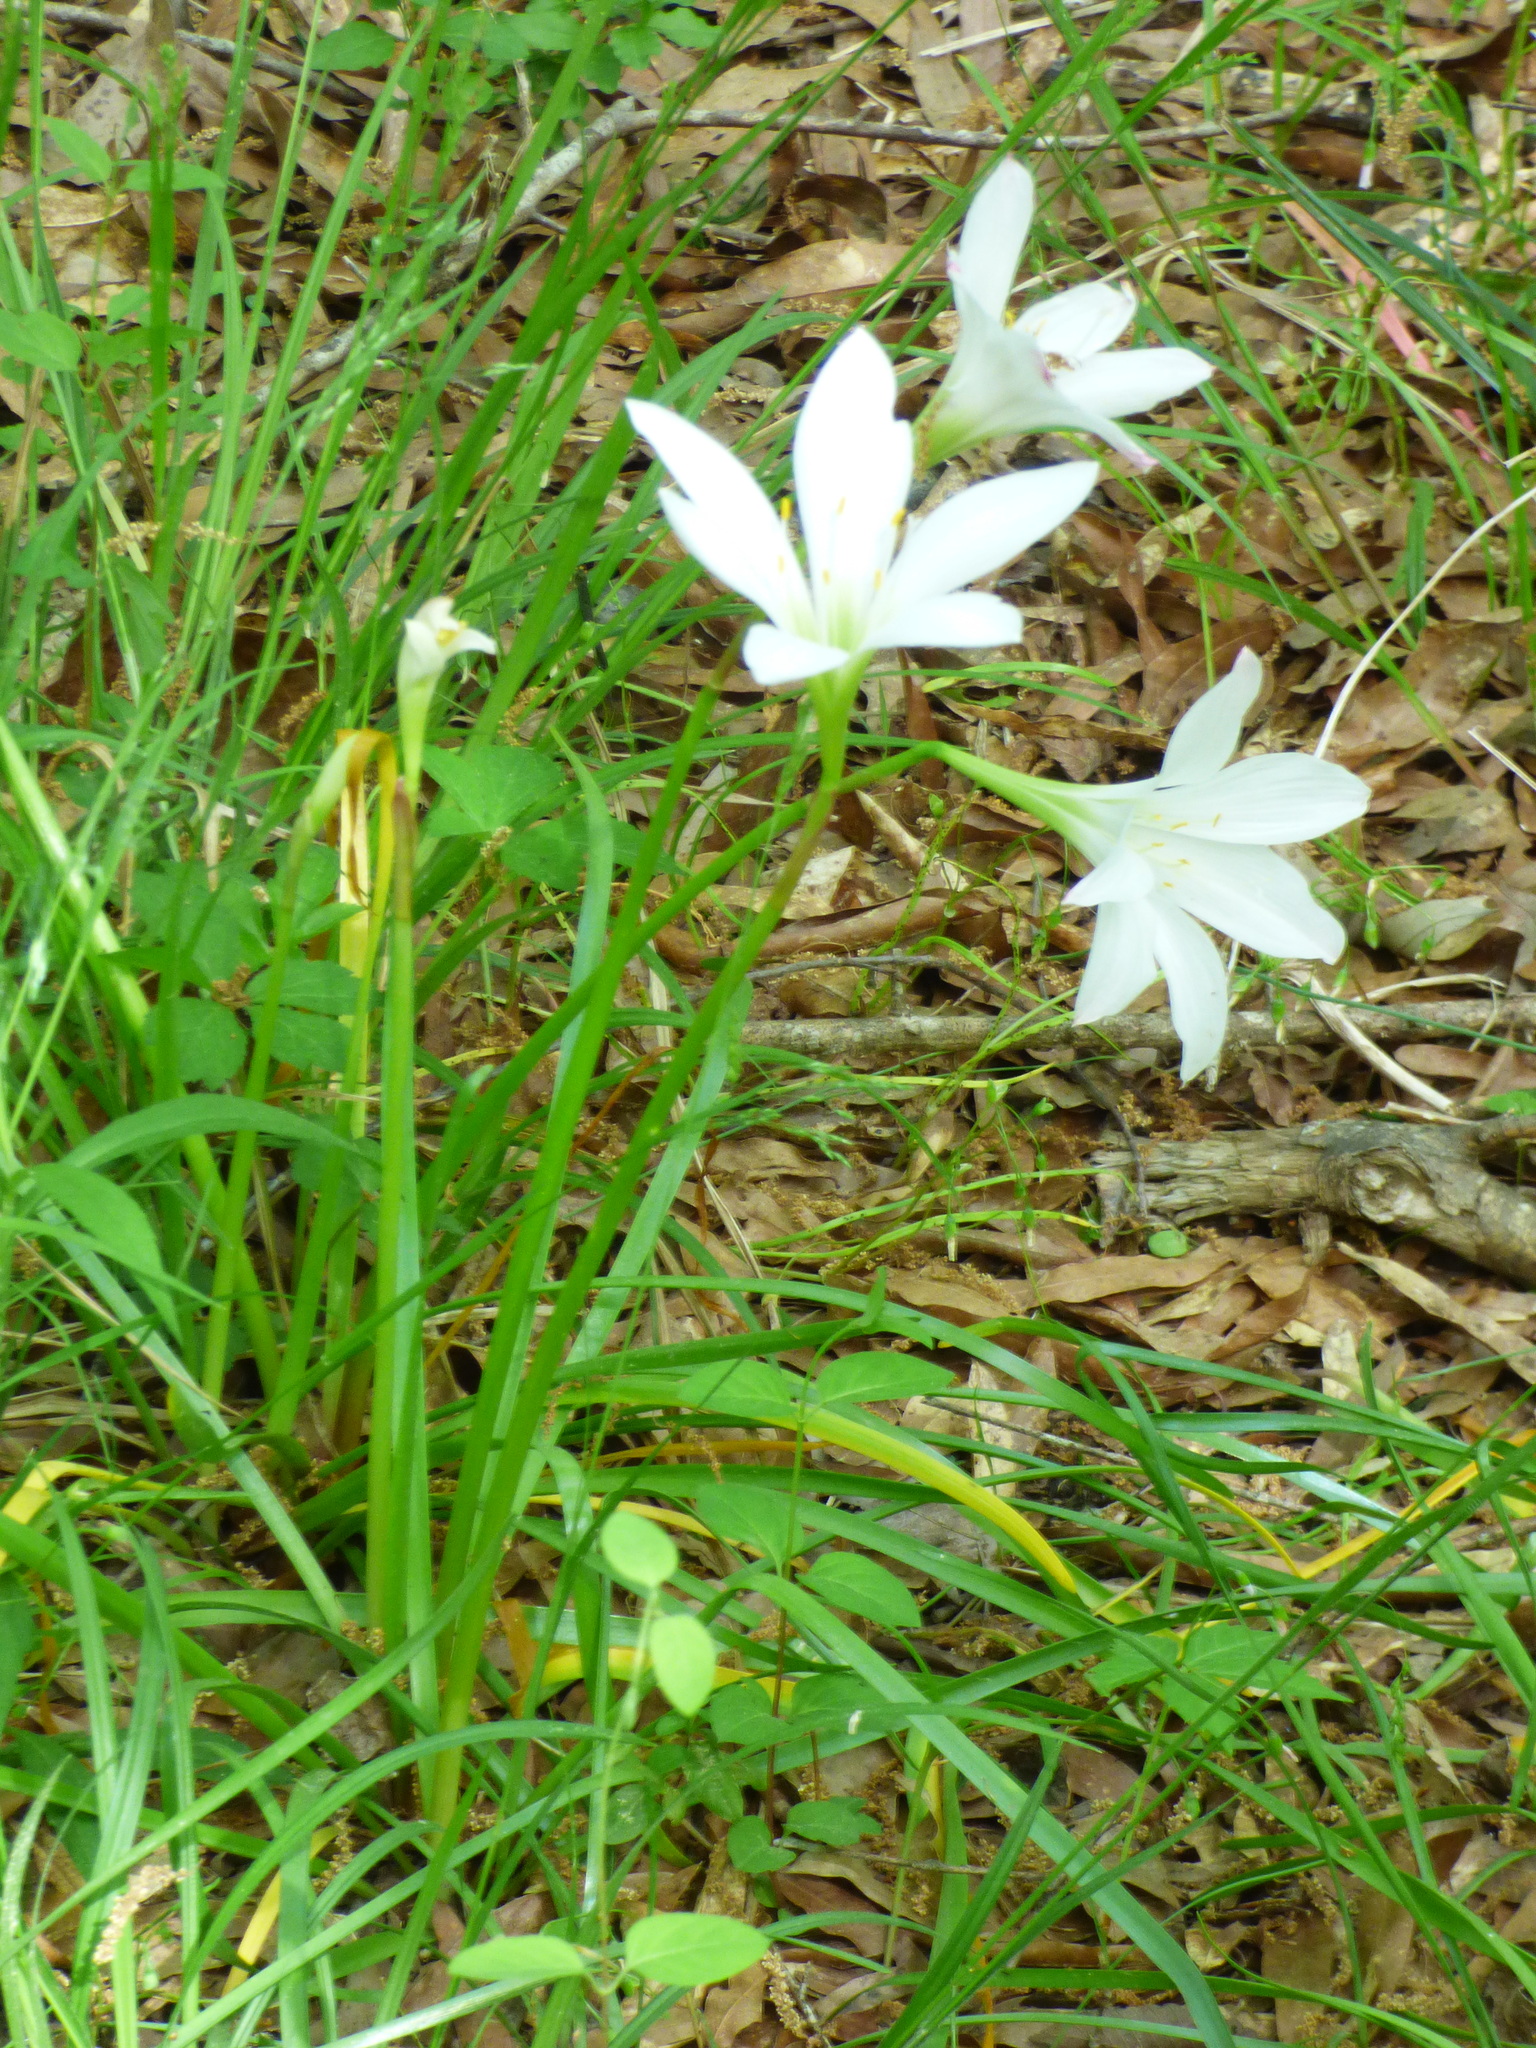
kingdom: Plantae
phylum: Tracheophyta
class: Liliopsida
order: Asparagales
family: Amaryllidaceae
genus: Zephyranthes
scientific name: Zephyranthes atamasco
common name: Atamasco lily
